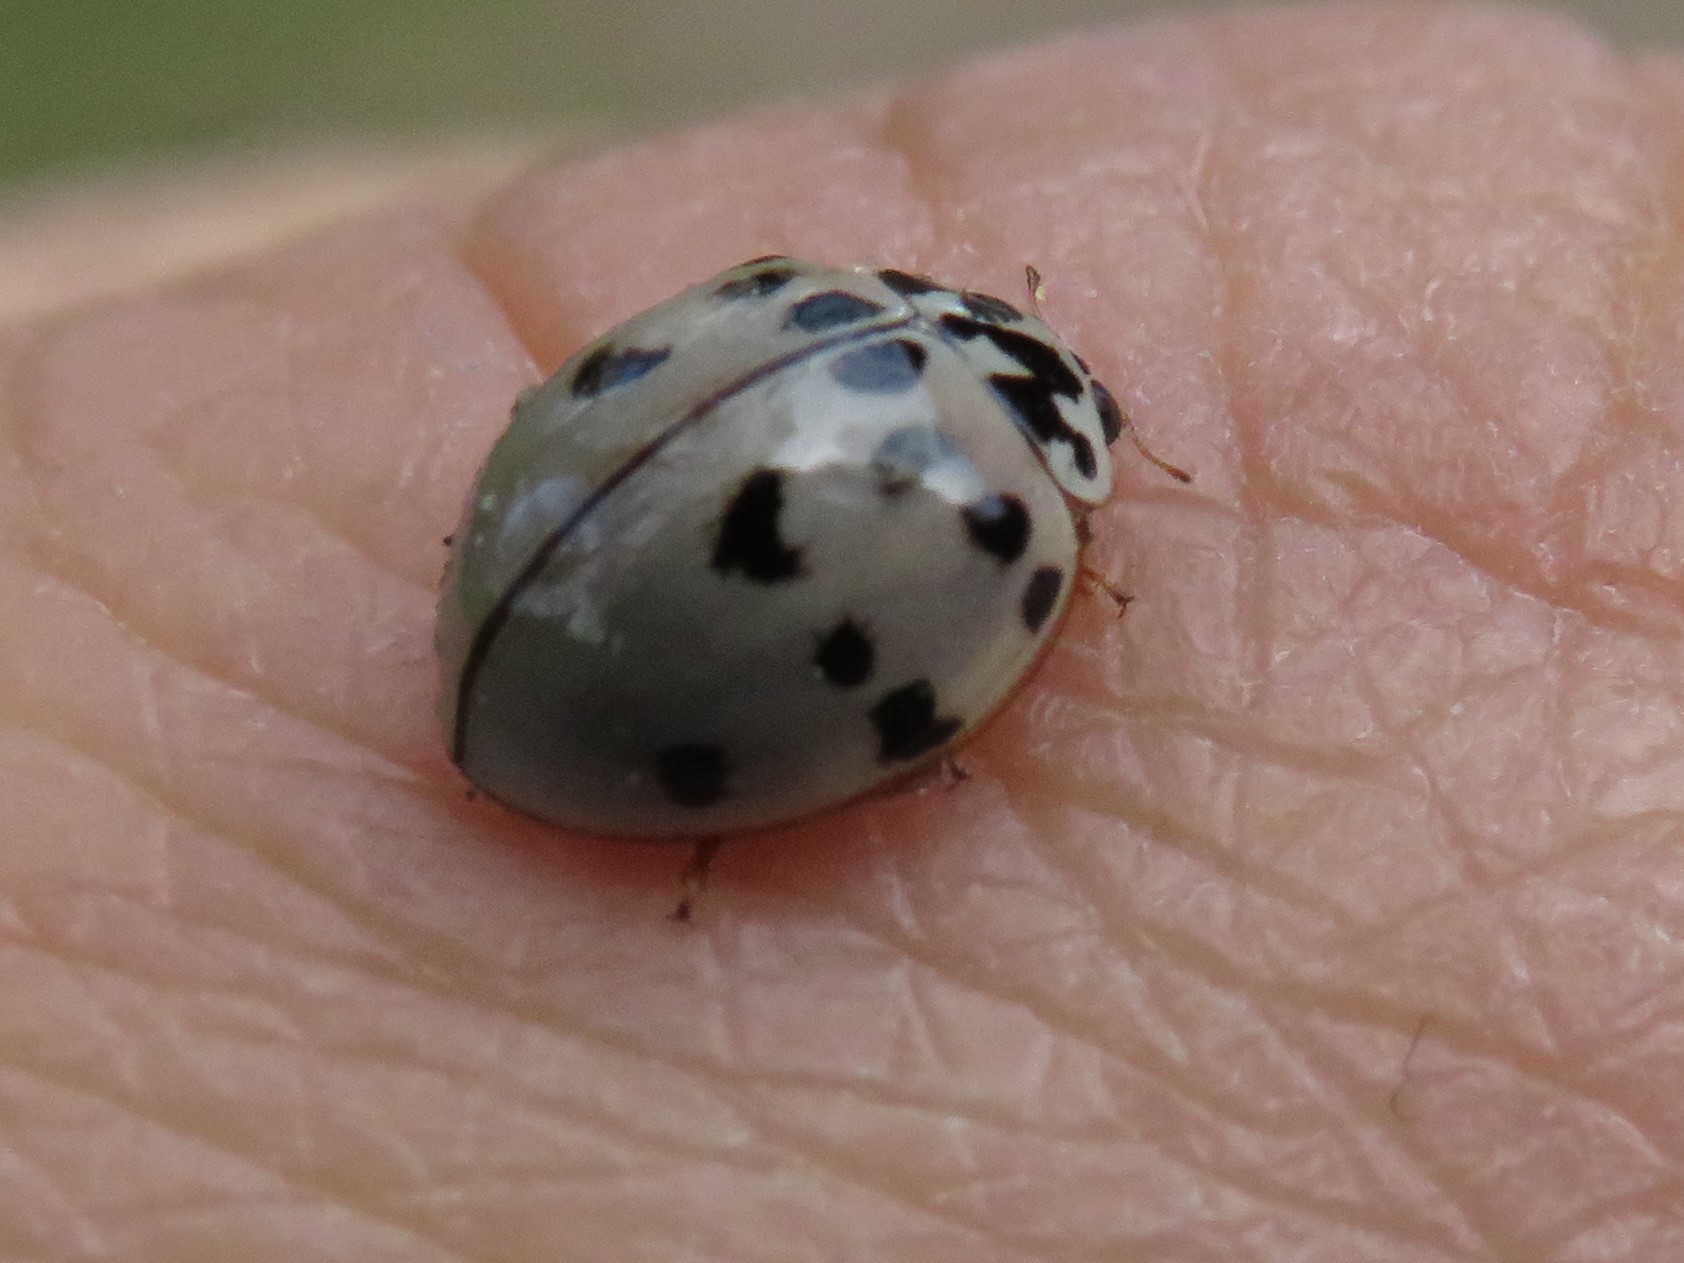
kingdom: Animalia
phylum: Arthropoda
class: Insecta
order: Coleoptera
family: Coccinellidae
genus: Olla
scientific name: Olla v-nigrum
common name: Ashy gray lady beetle
